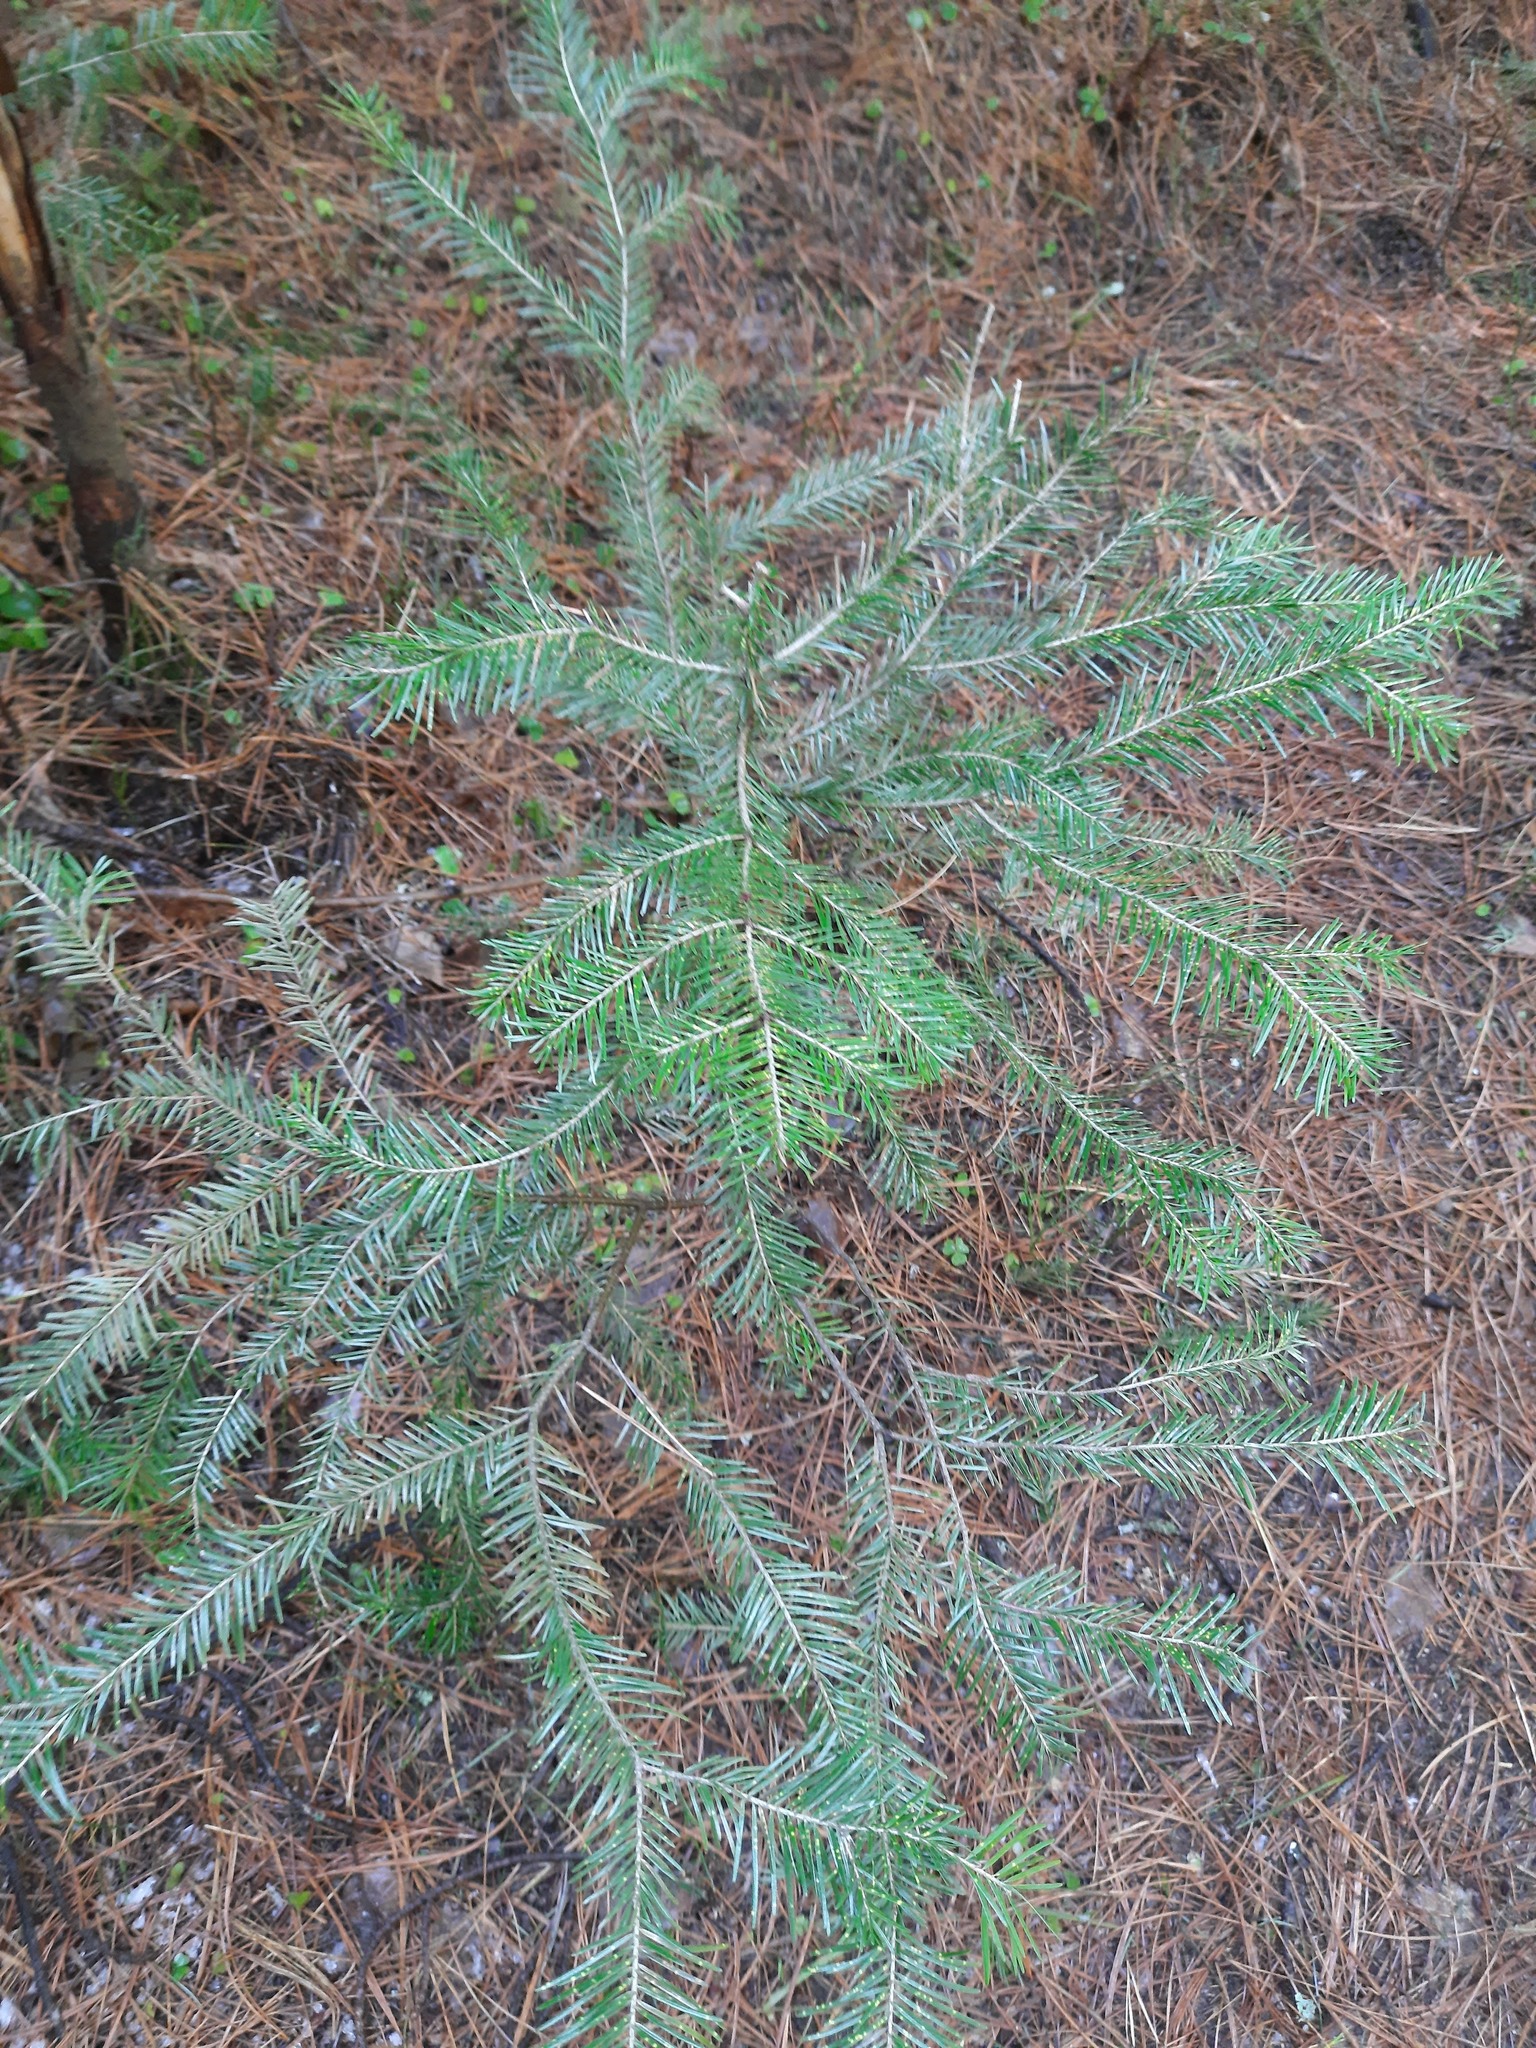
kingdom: Plantae
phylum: Tracheophyta
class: Pinopsida
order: Pinales
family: Pinaceae
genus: Abies
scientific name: Abies sibirica
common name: Siberian fir
